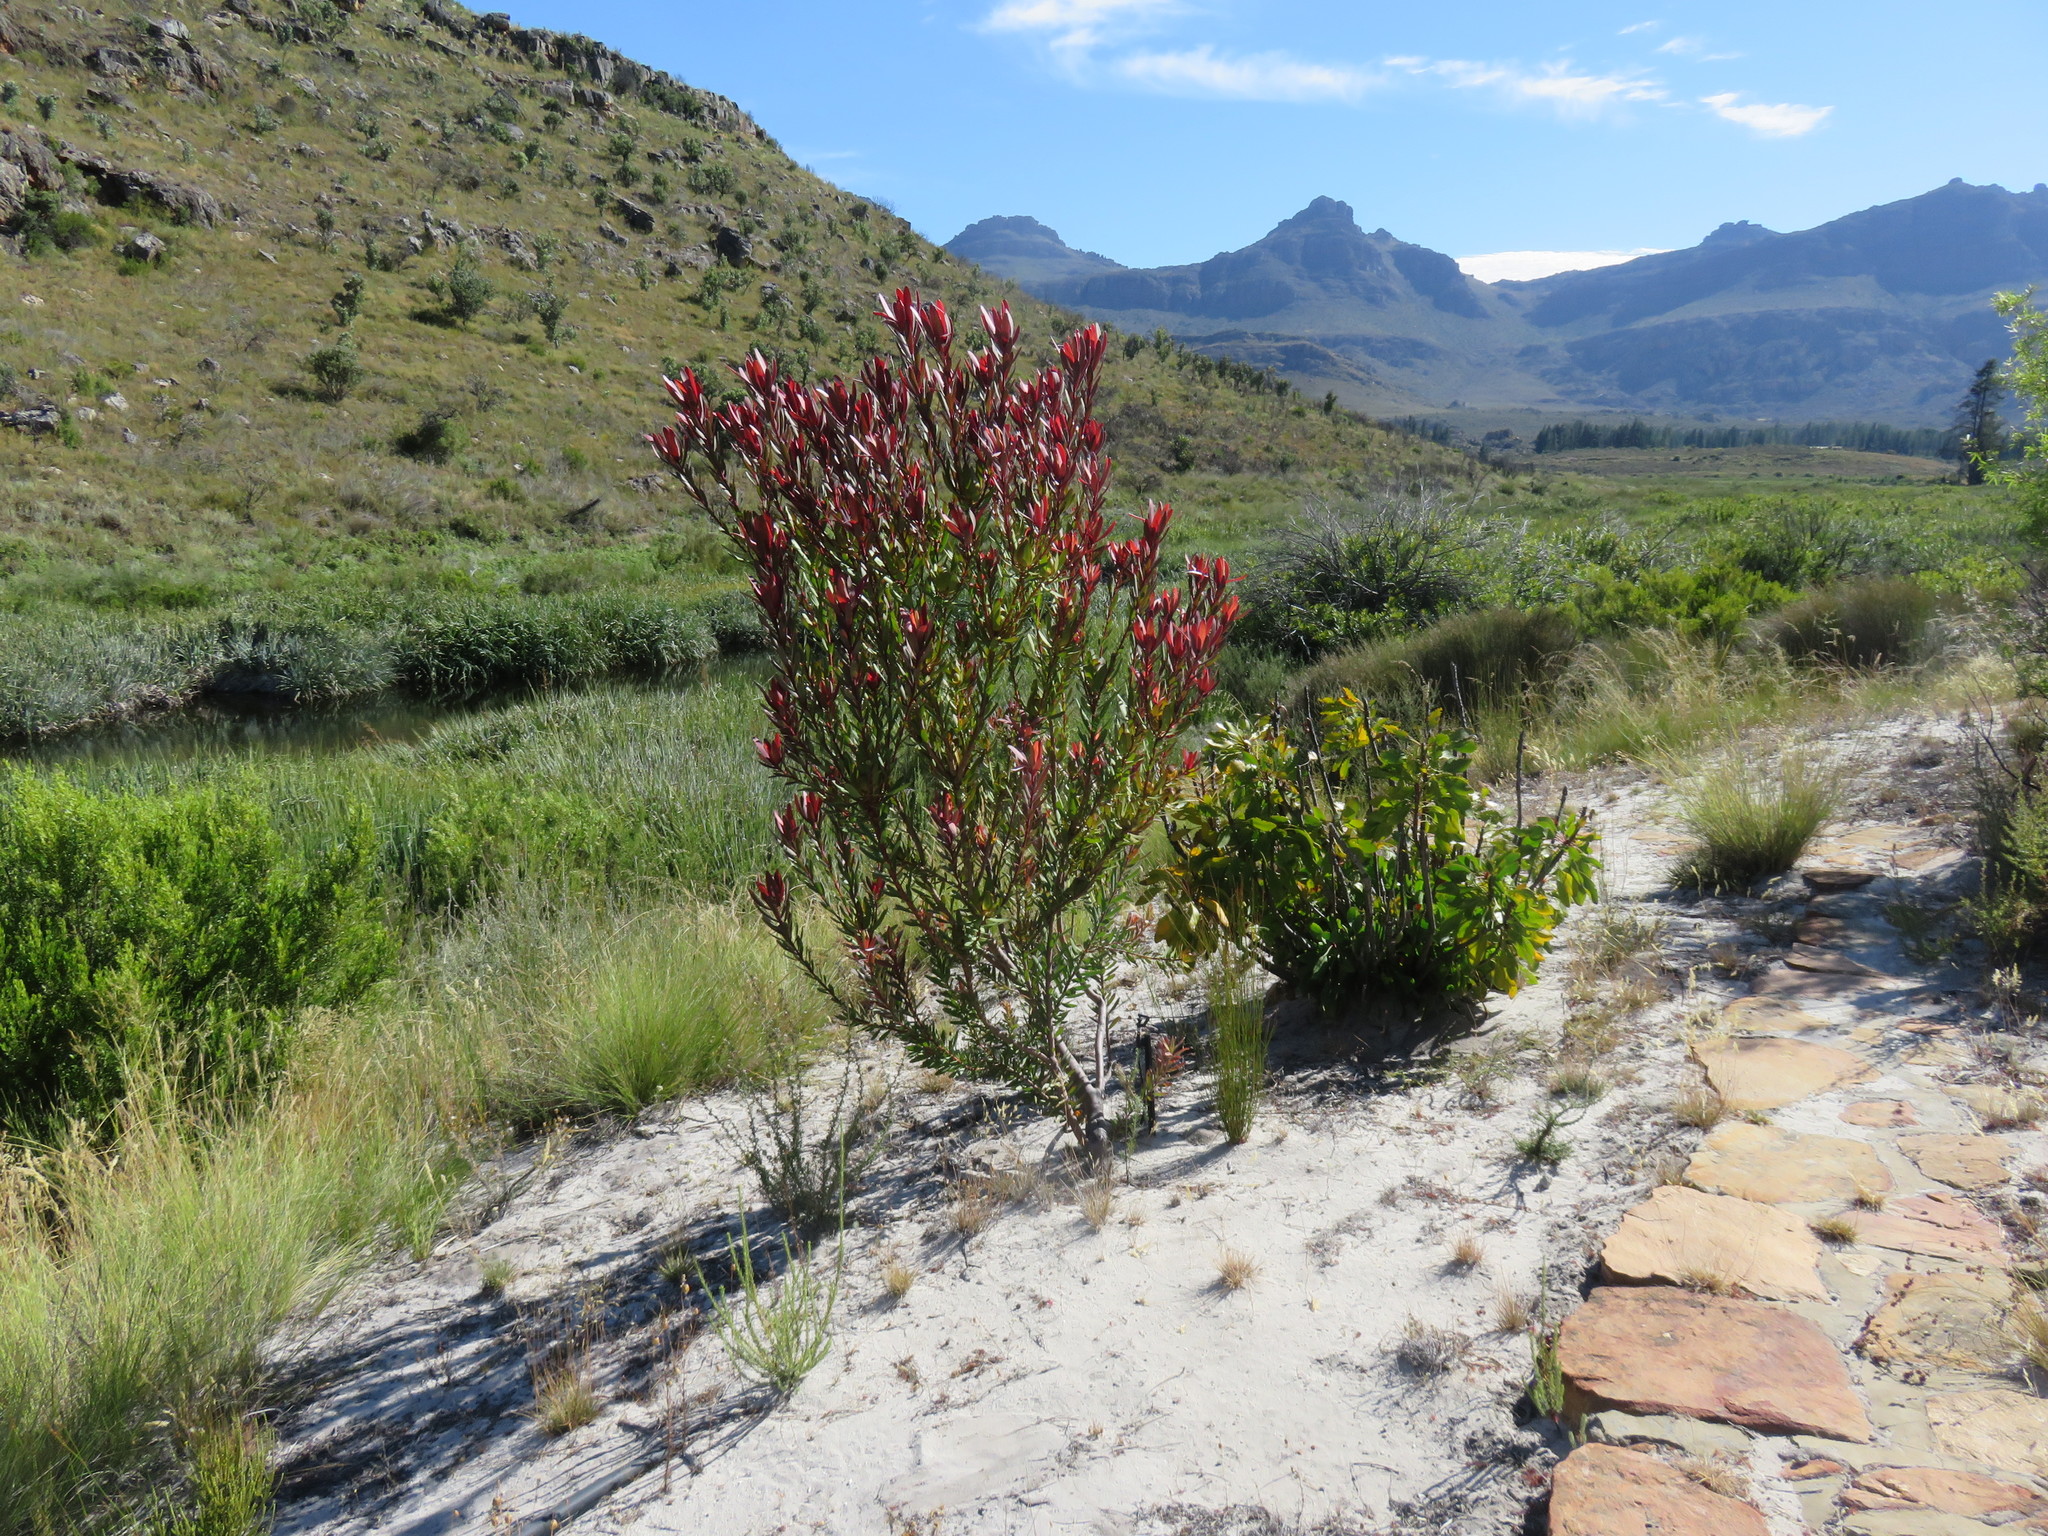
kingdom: Plantae
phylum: Tracheophyta
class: Magnoliopsida
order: Proteales
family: Proteaceae
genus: Leucadendron
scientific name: Leucadendron
